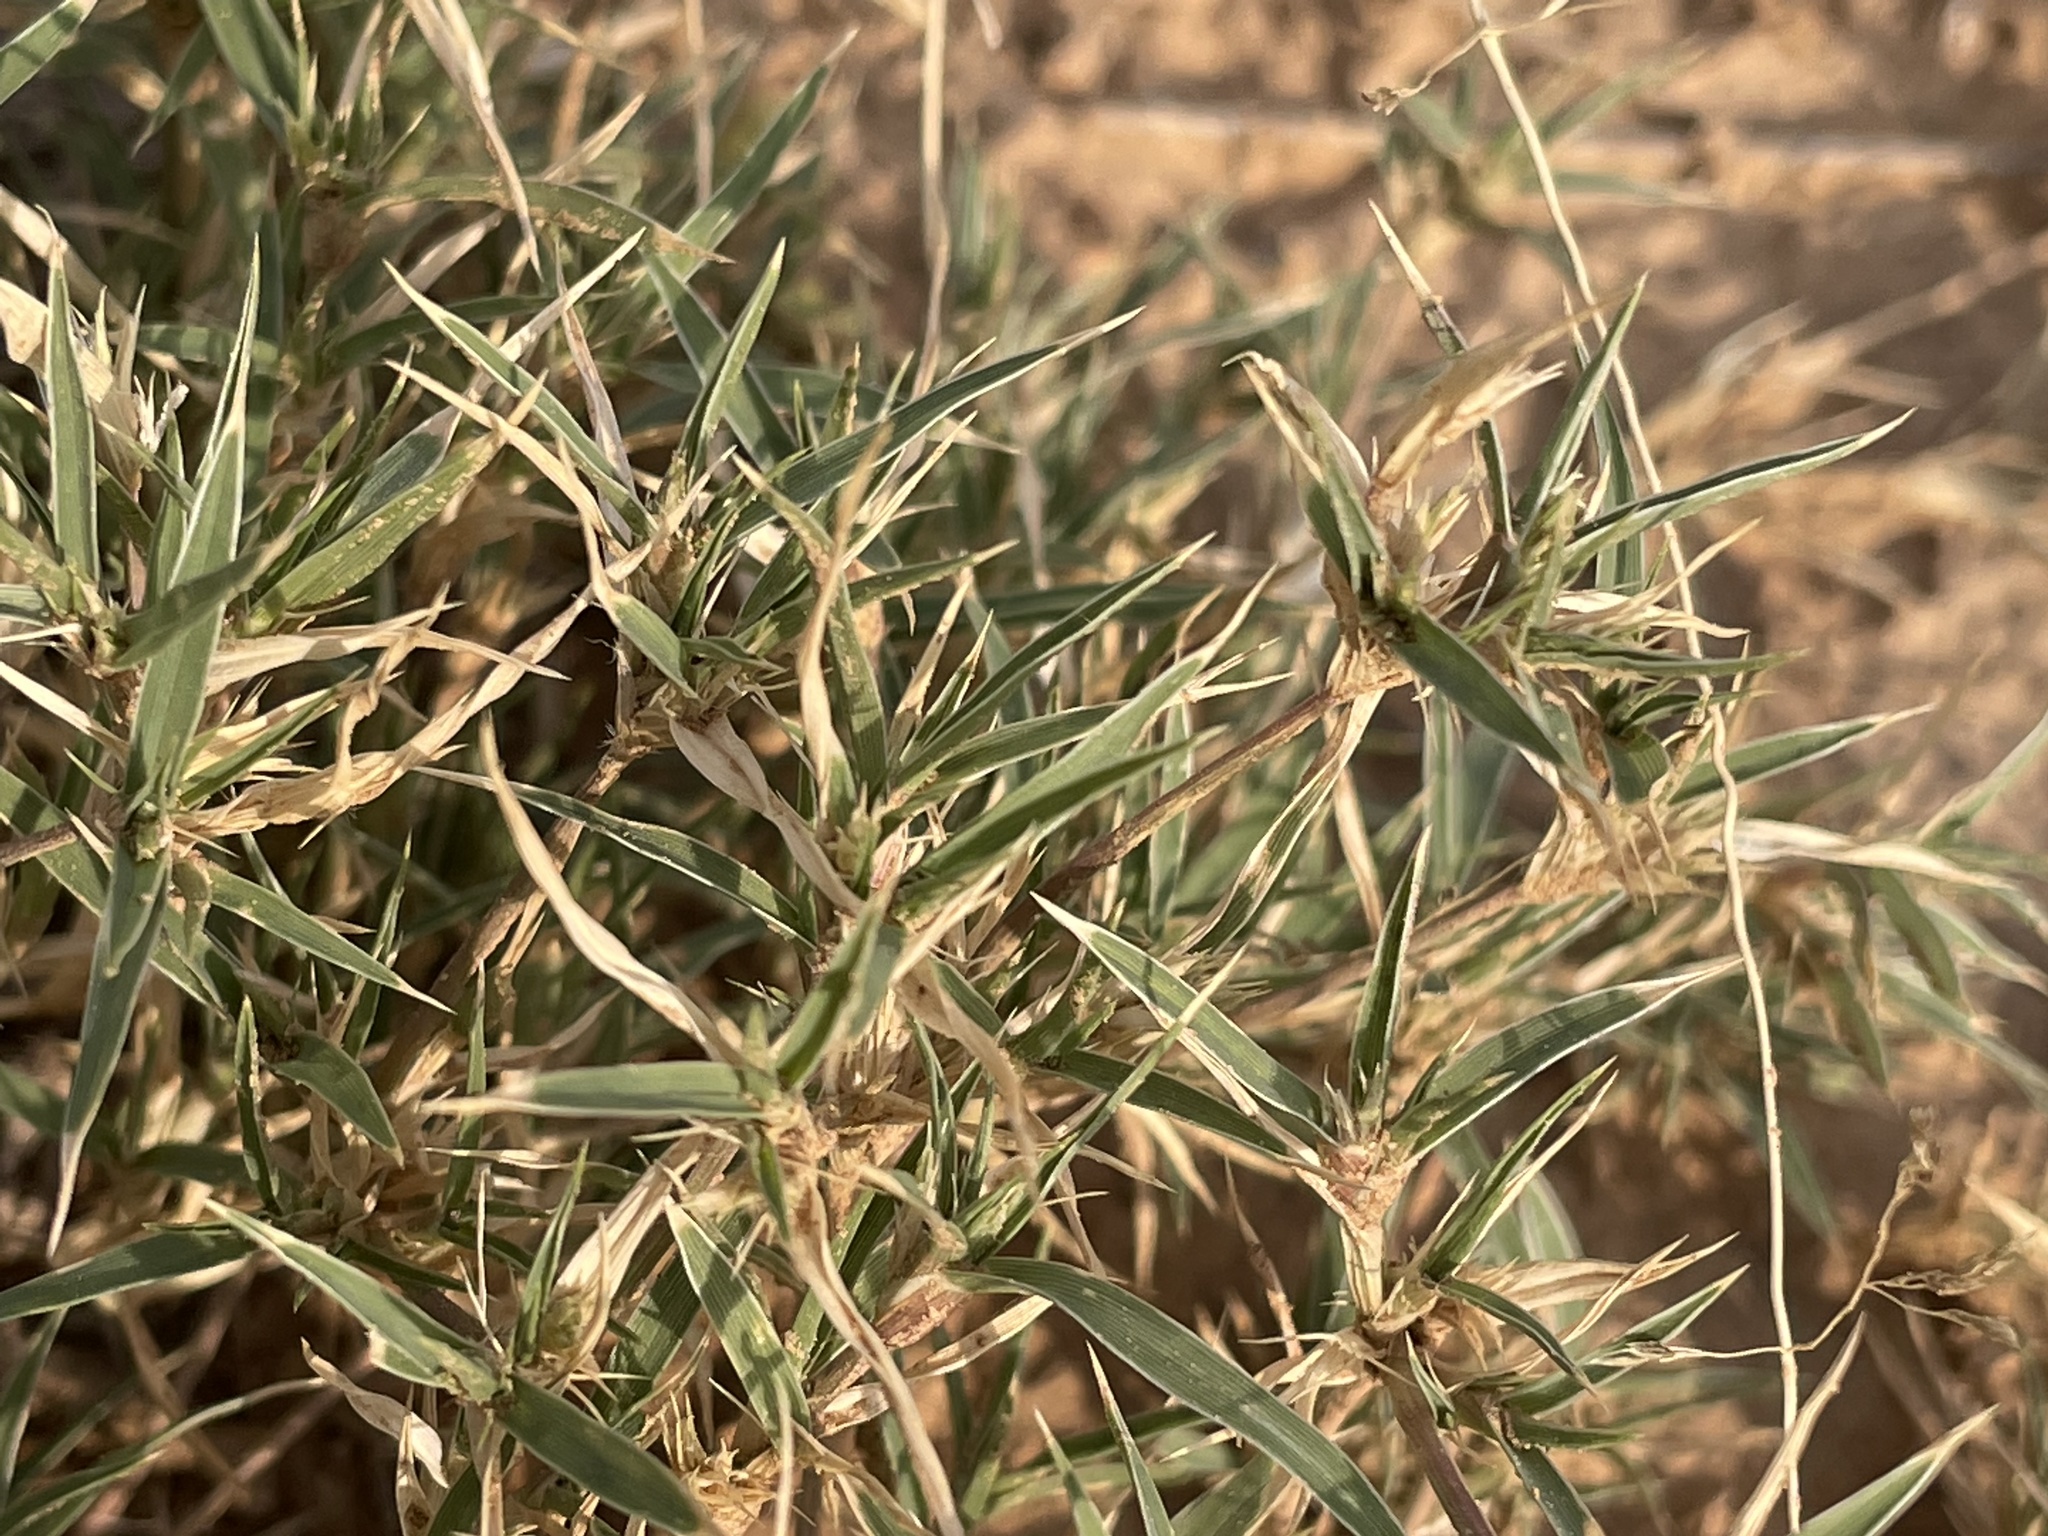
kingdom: Plantae
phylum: Tracheophyta
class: Liliopsida
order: Poales
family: Poaceae
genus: Munroa
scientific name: Munroa squarrosa
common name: False buffalo grass
